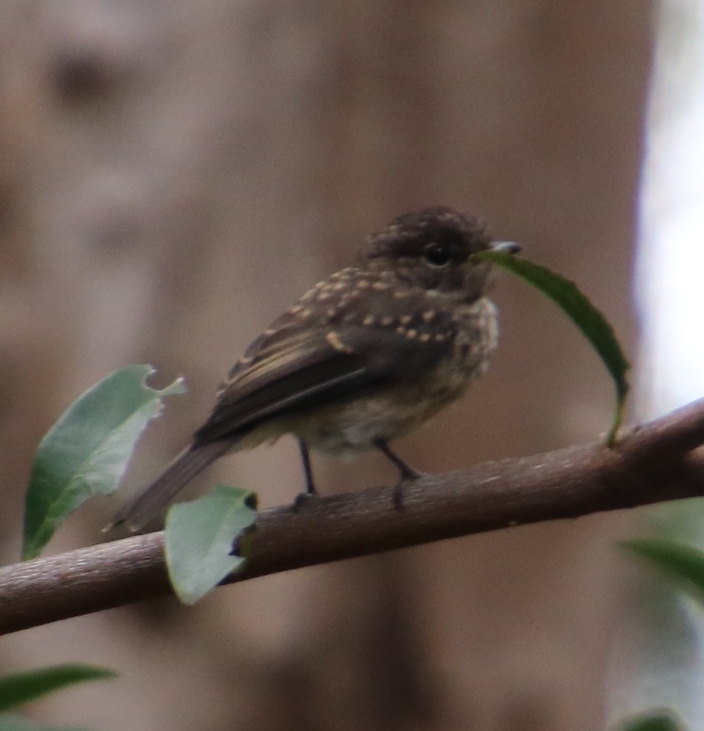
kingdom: Animalia
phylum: Chordata
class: Aves
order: Passeriformes
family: Muscicapidae
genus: Muscicapa
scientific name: Muscicapa adusta
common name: African dusky flycatcher
